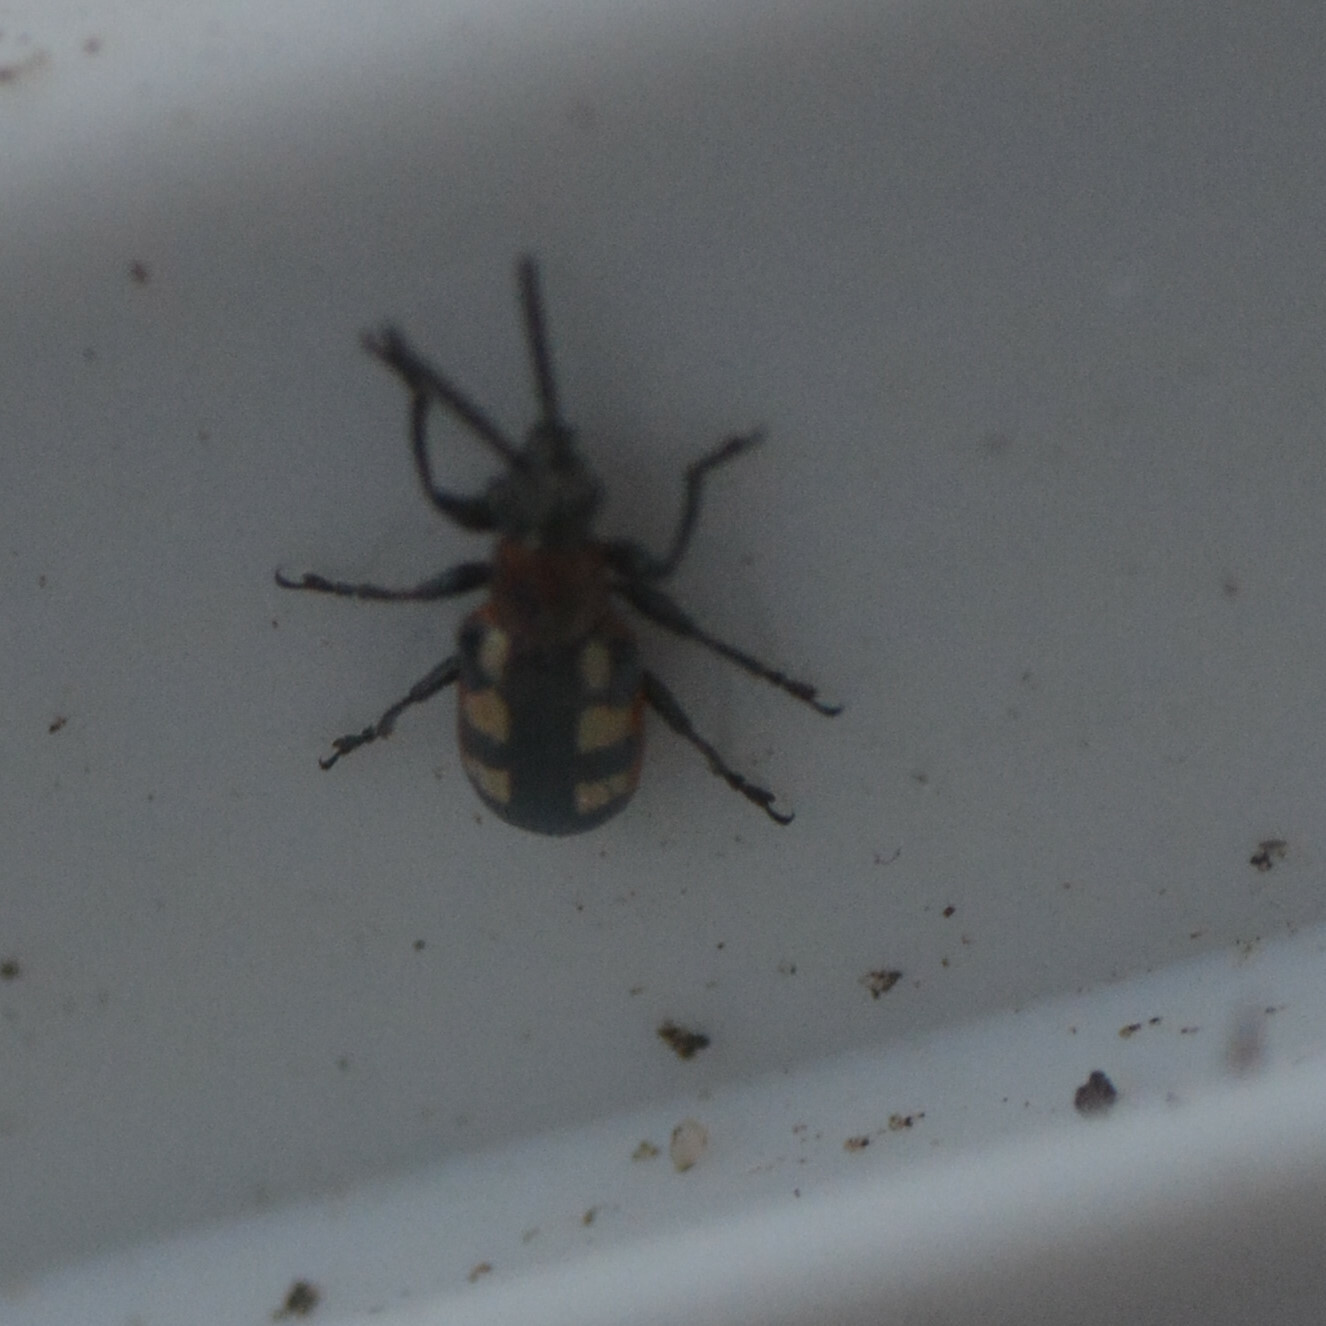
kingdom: Animalia
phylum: Arthropoda
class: Insecta
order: Coleoptera
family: Chrysomelidae
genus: Crioceris
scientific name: Crioceris asparagi
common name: Asparagus beetle
